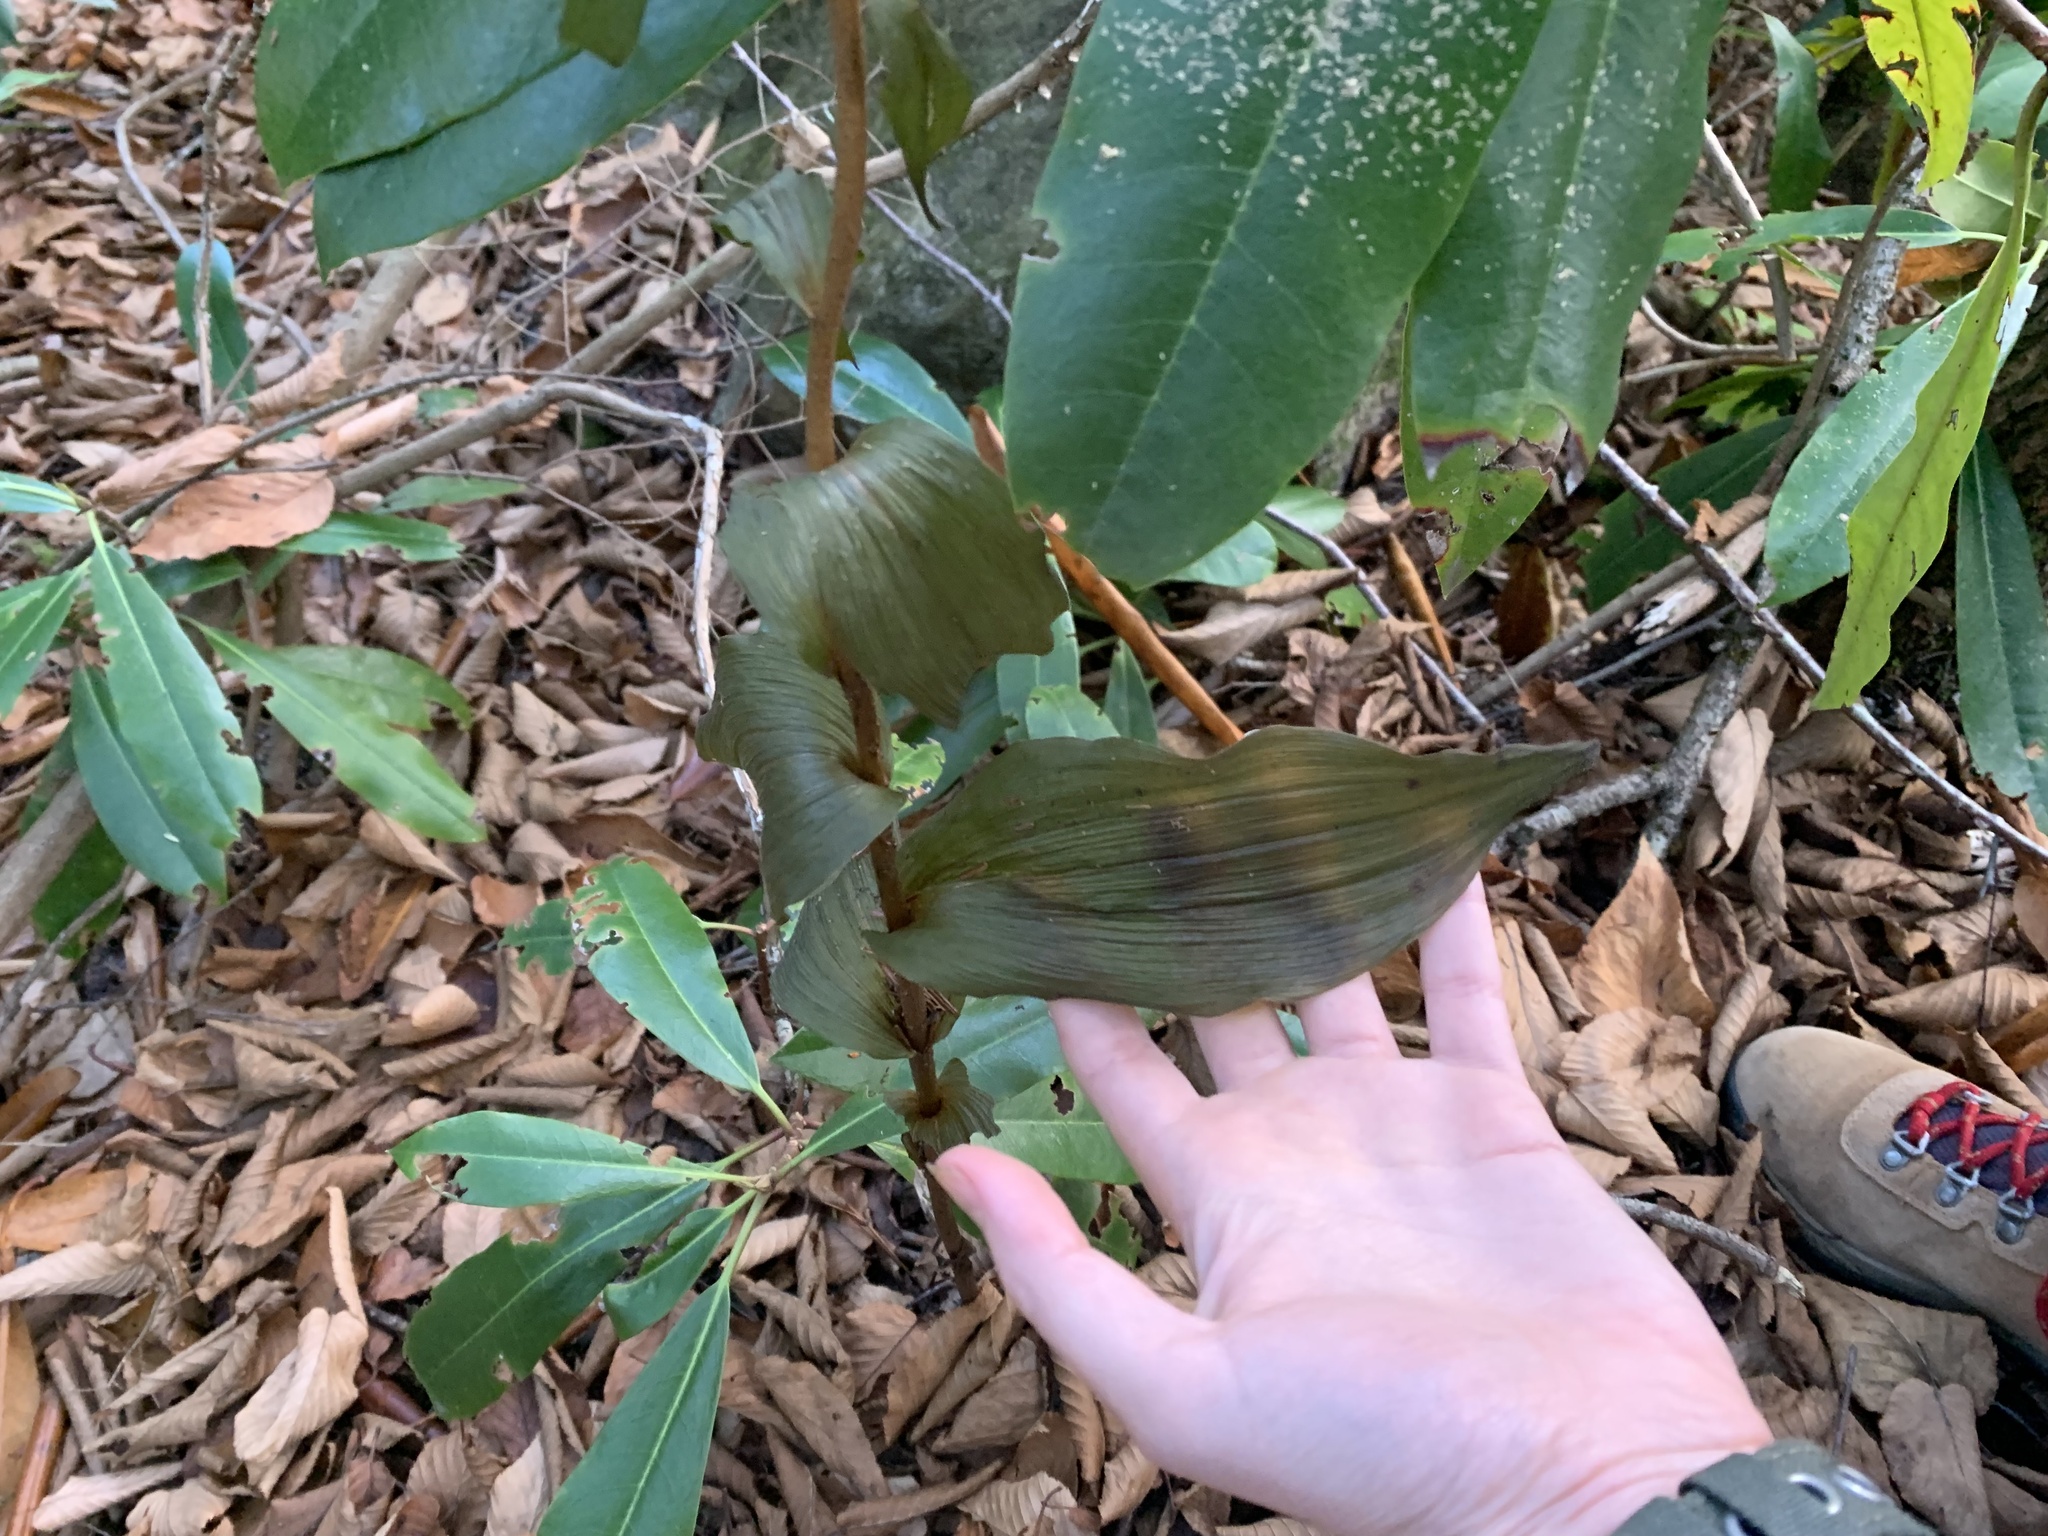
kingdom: Plantae
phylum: Tracheophyta
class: Liliopsida
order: Asparagales
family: Orchidaceae
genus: Epipactis
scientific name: Epipactis helleborine
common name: Broad-leaved helleborine
